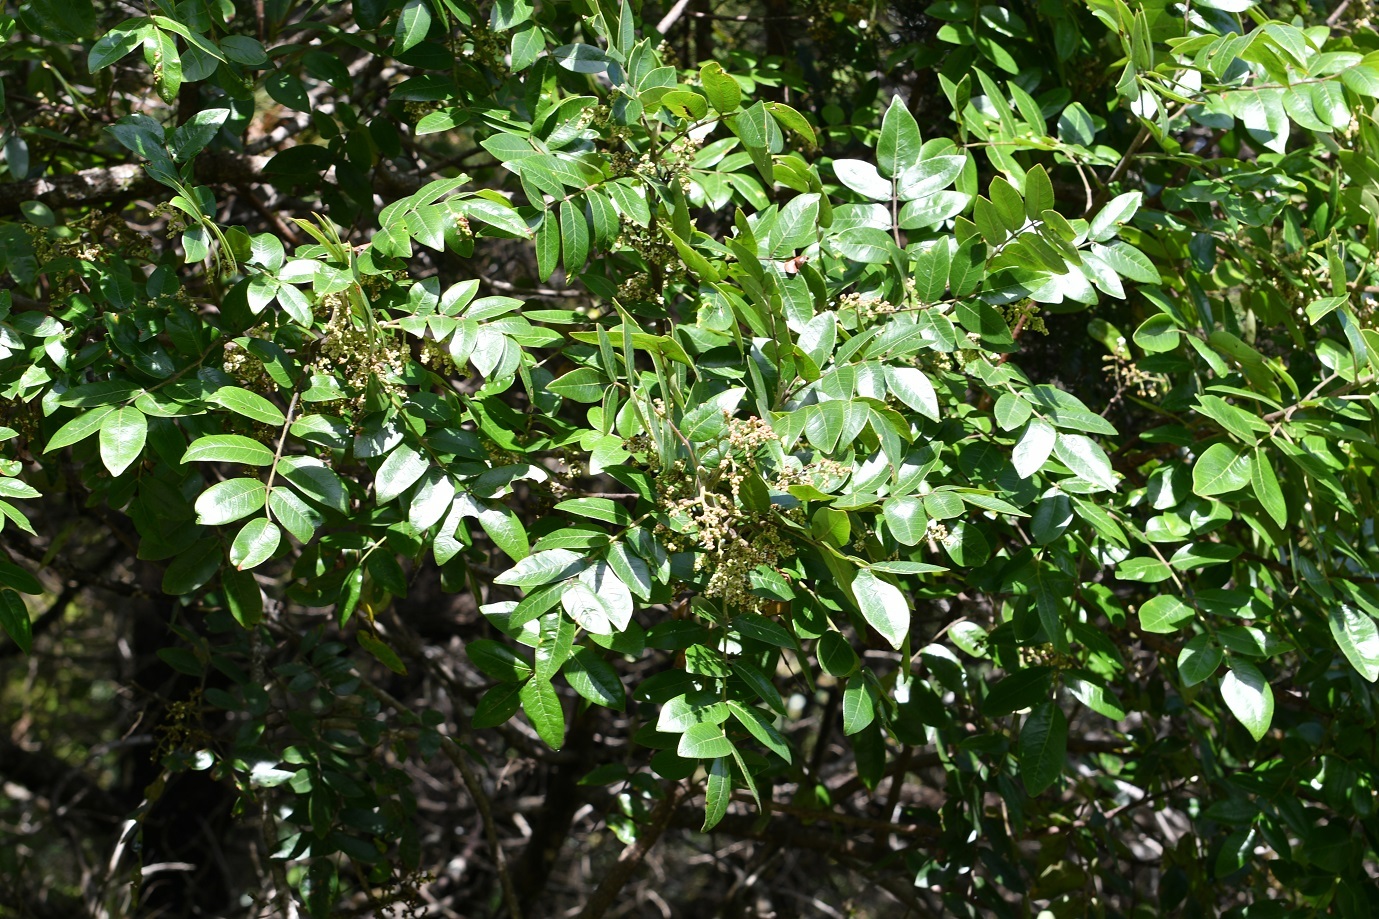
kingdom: Plantae
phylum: Tracheophyta
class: Magnoliopsida
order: Sapindales
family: Anacardiaceae
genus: Rhus
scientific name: Rhus schiedeana
